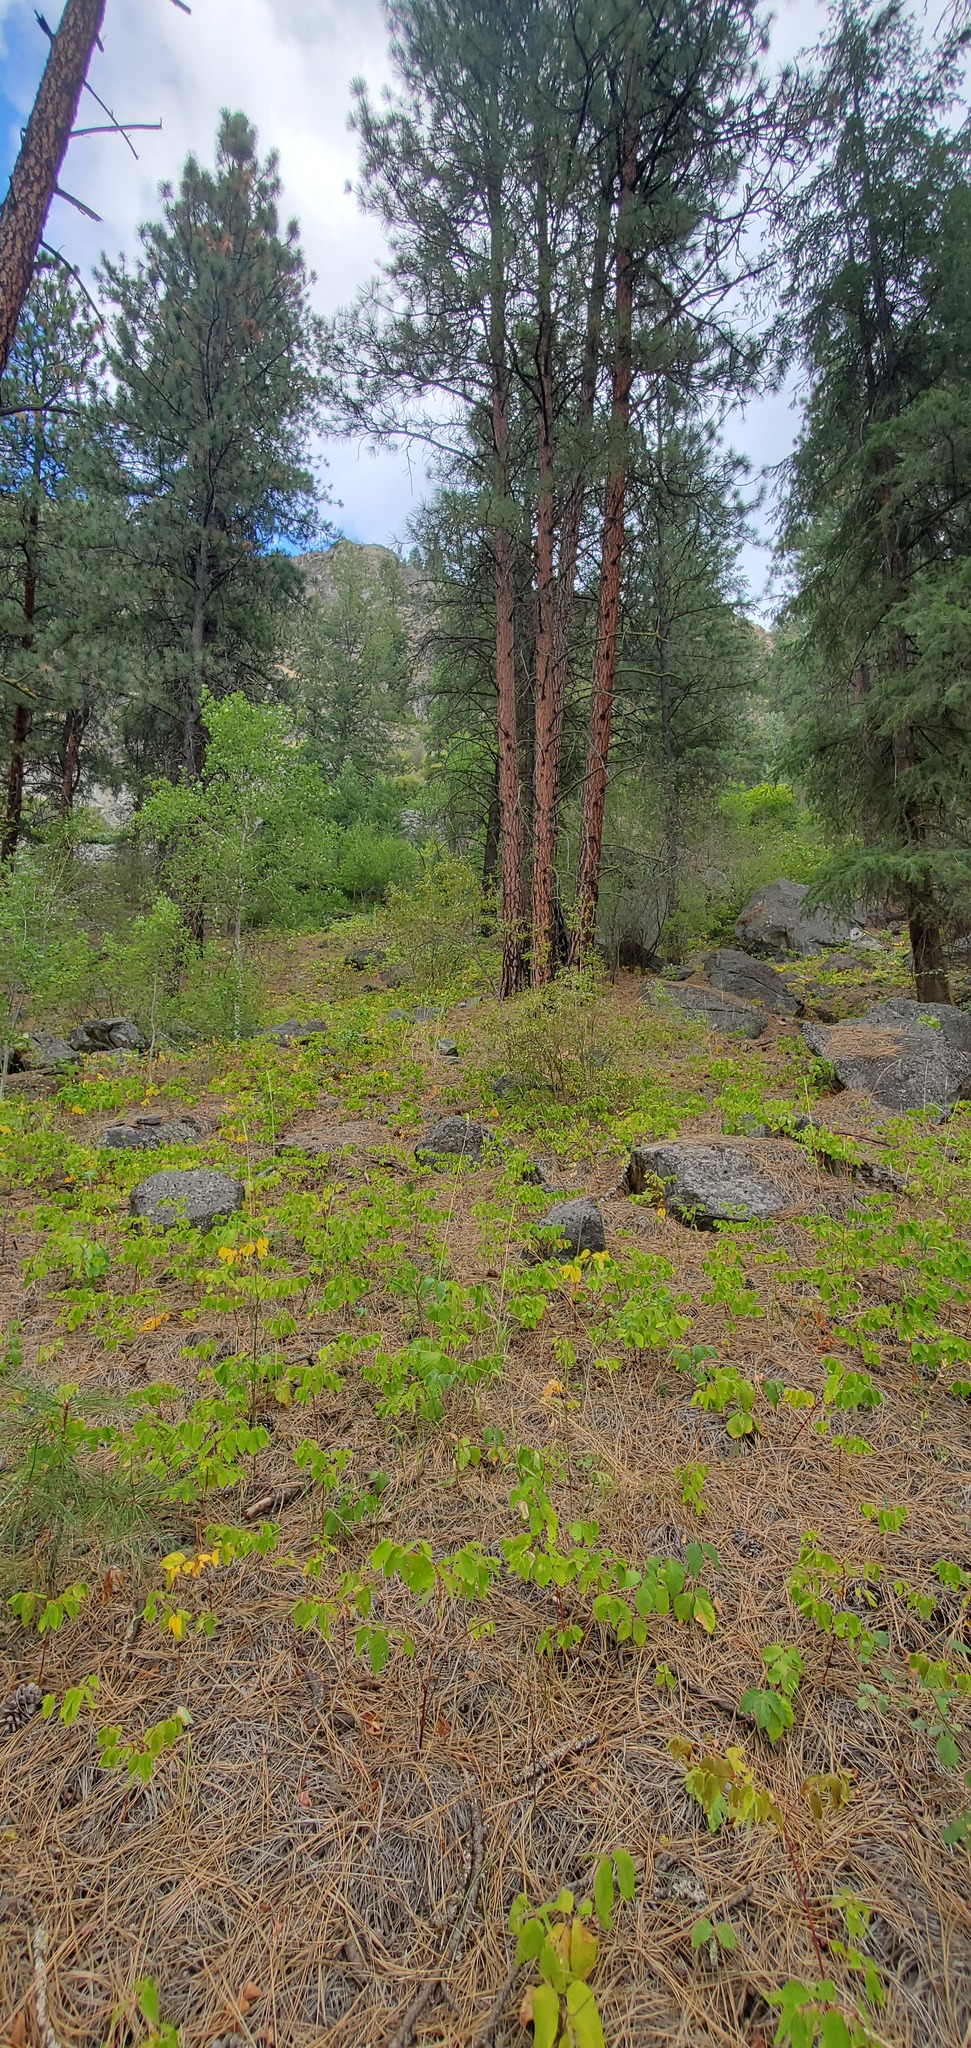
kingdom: Plantae
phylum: Tracheophyta
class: Magnoliopsida
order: Sapindales
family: Anacardiaceae
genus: Toxicodendron
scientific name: Toxicodendron rydbergii
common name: Rydberg's poison-ivy
